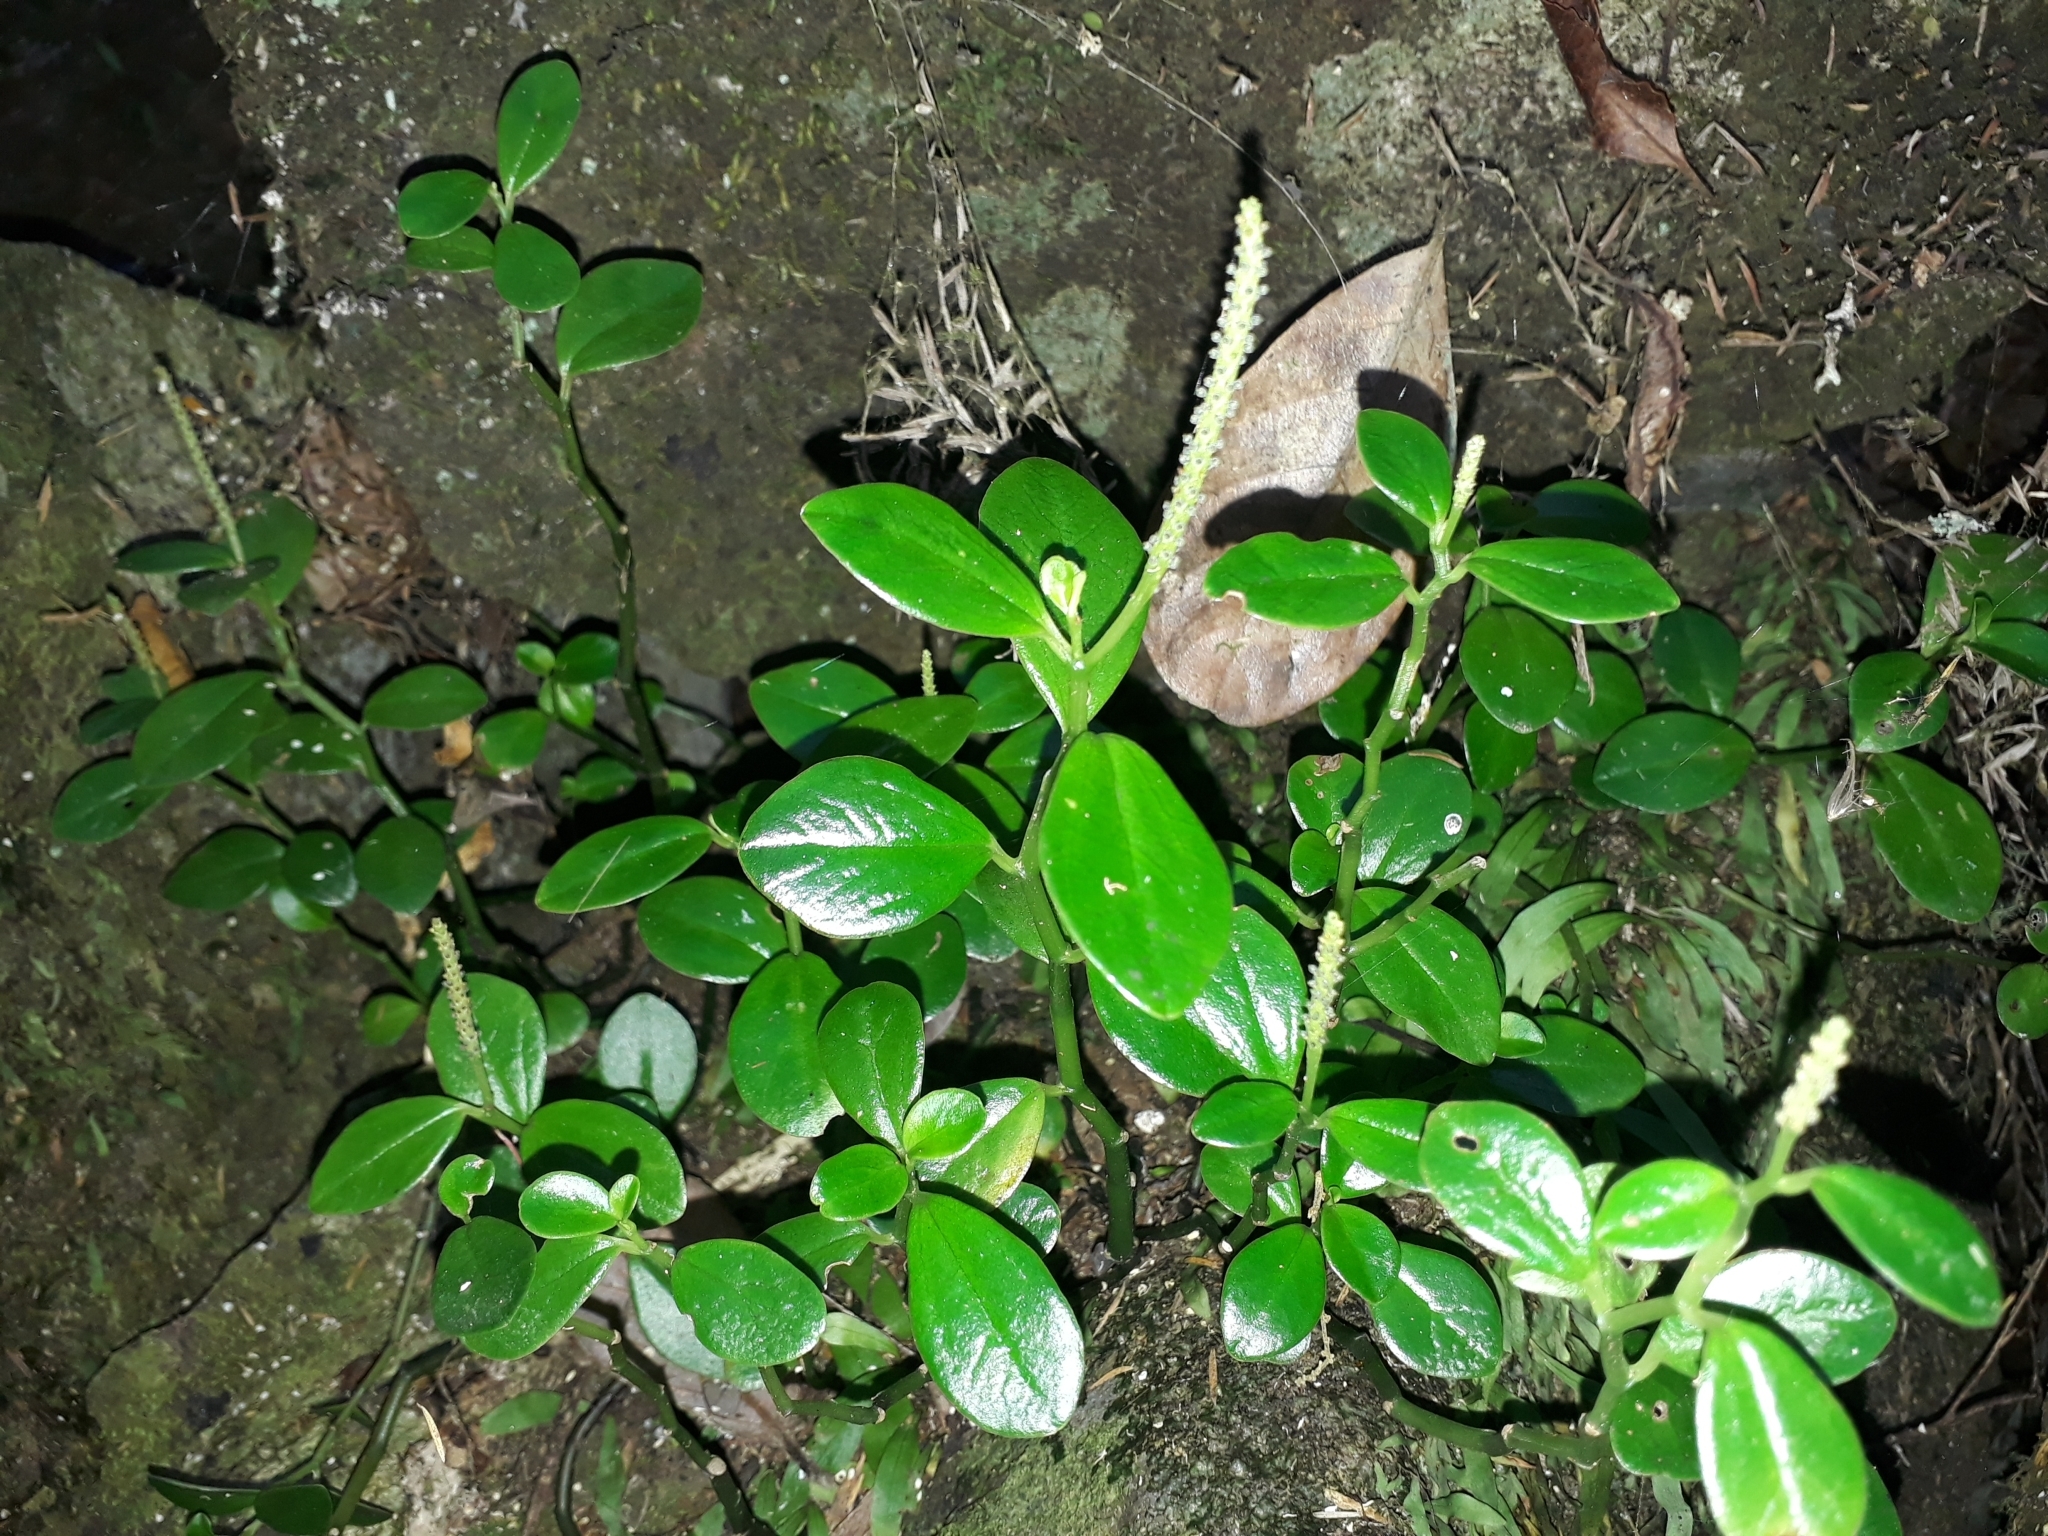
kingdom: Plantae
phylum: Tracheophyta
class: Magnoliopsida
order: Piperales
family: Piperaceae
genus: Peperomia
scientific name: Peperomia urvilleana
